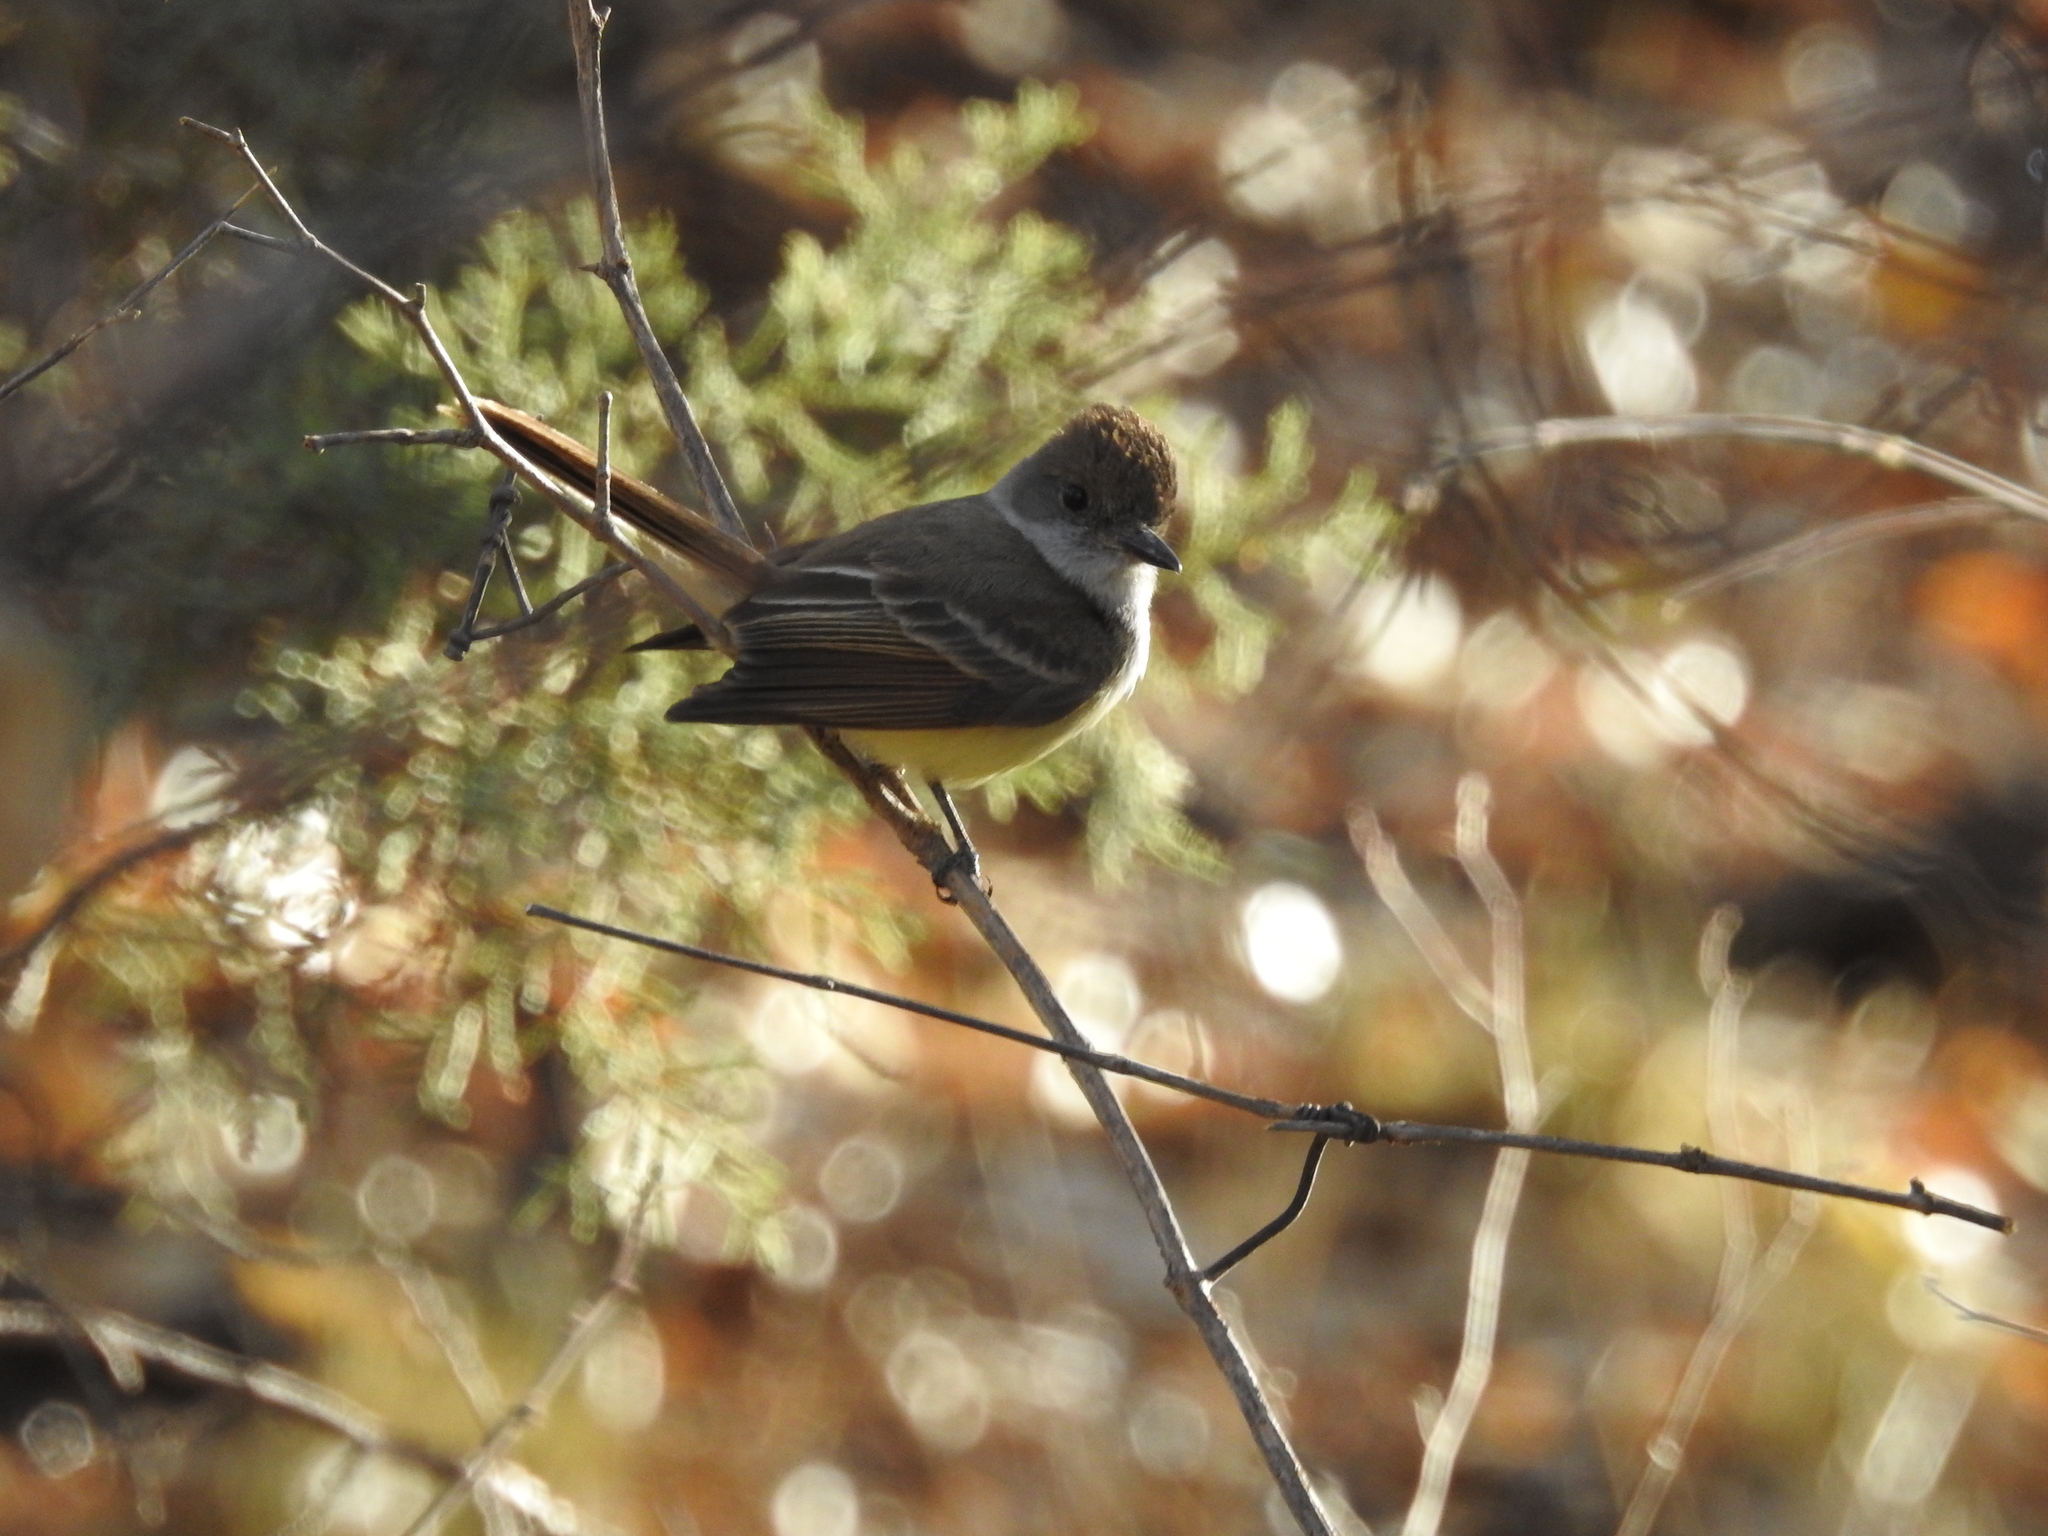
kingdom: Animalia
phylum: Chordata
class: Aves
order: Passeriformes
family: Tyrannidae
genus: Myiarchus
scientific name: Myiarchus
